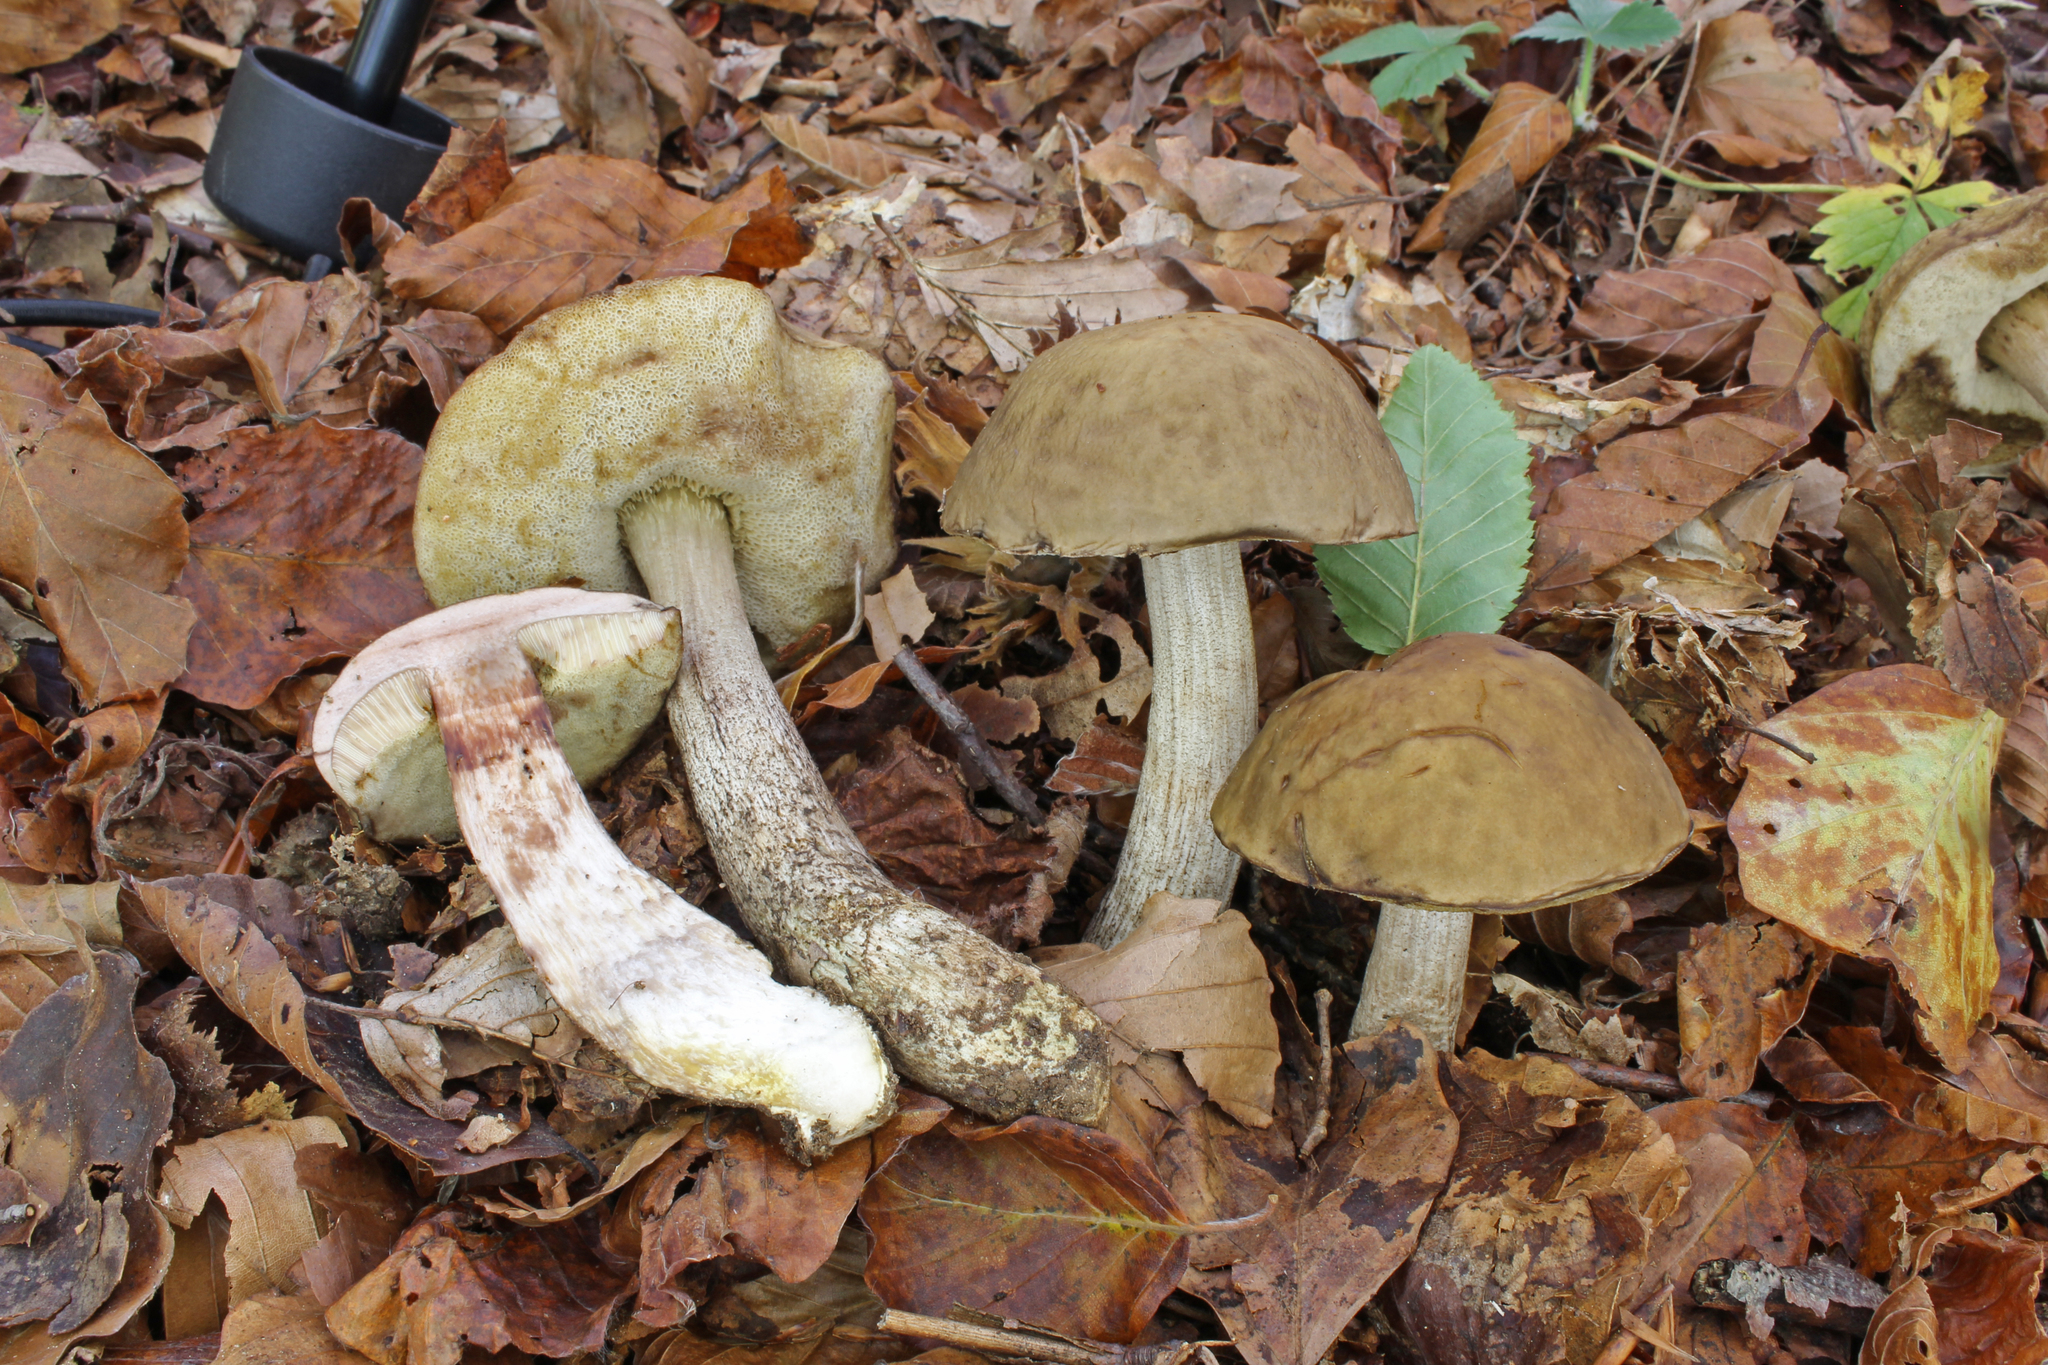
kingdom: Fungi
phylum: Basidiomycota
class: Agaricomycetes
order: Boletales
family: Boletaceae
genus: Leccinellum
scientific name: Leccinellum pseudoscabrum
